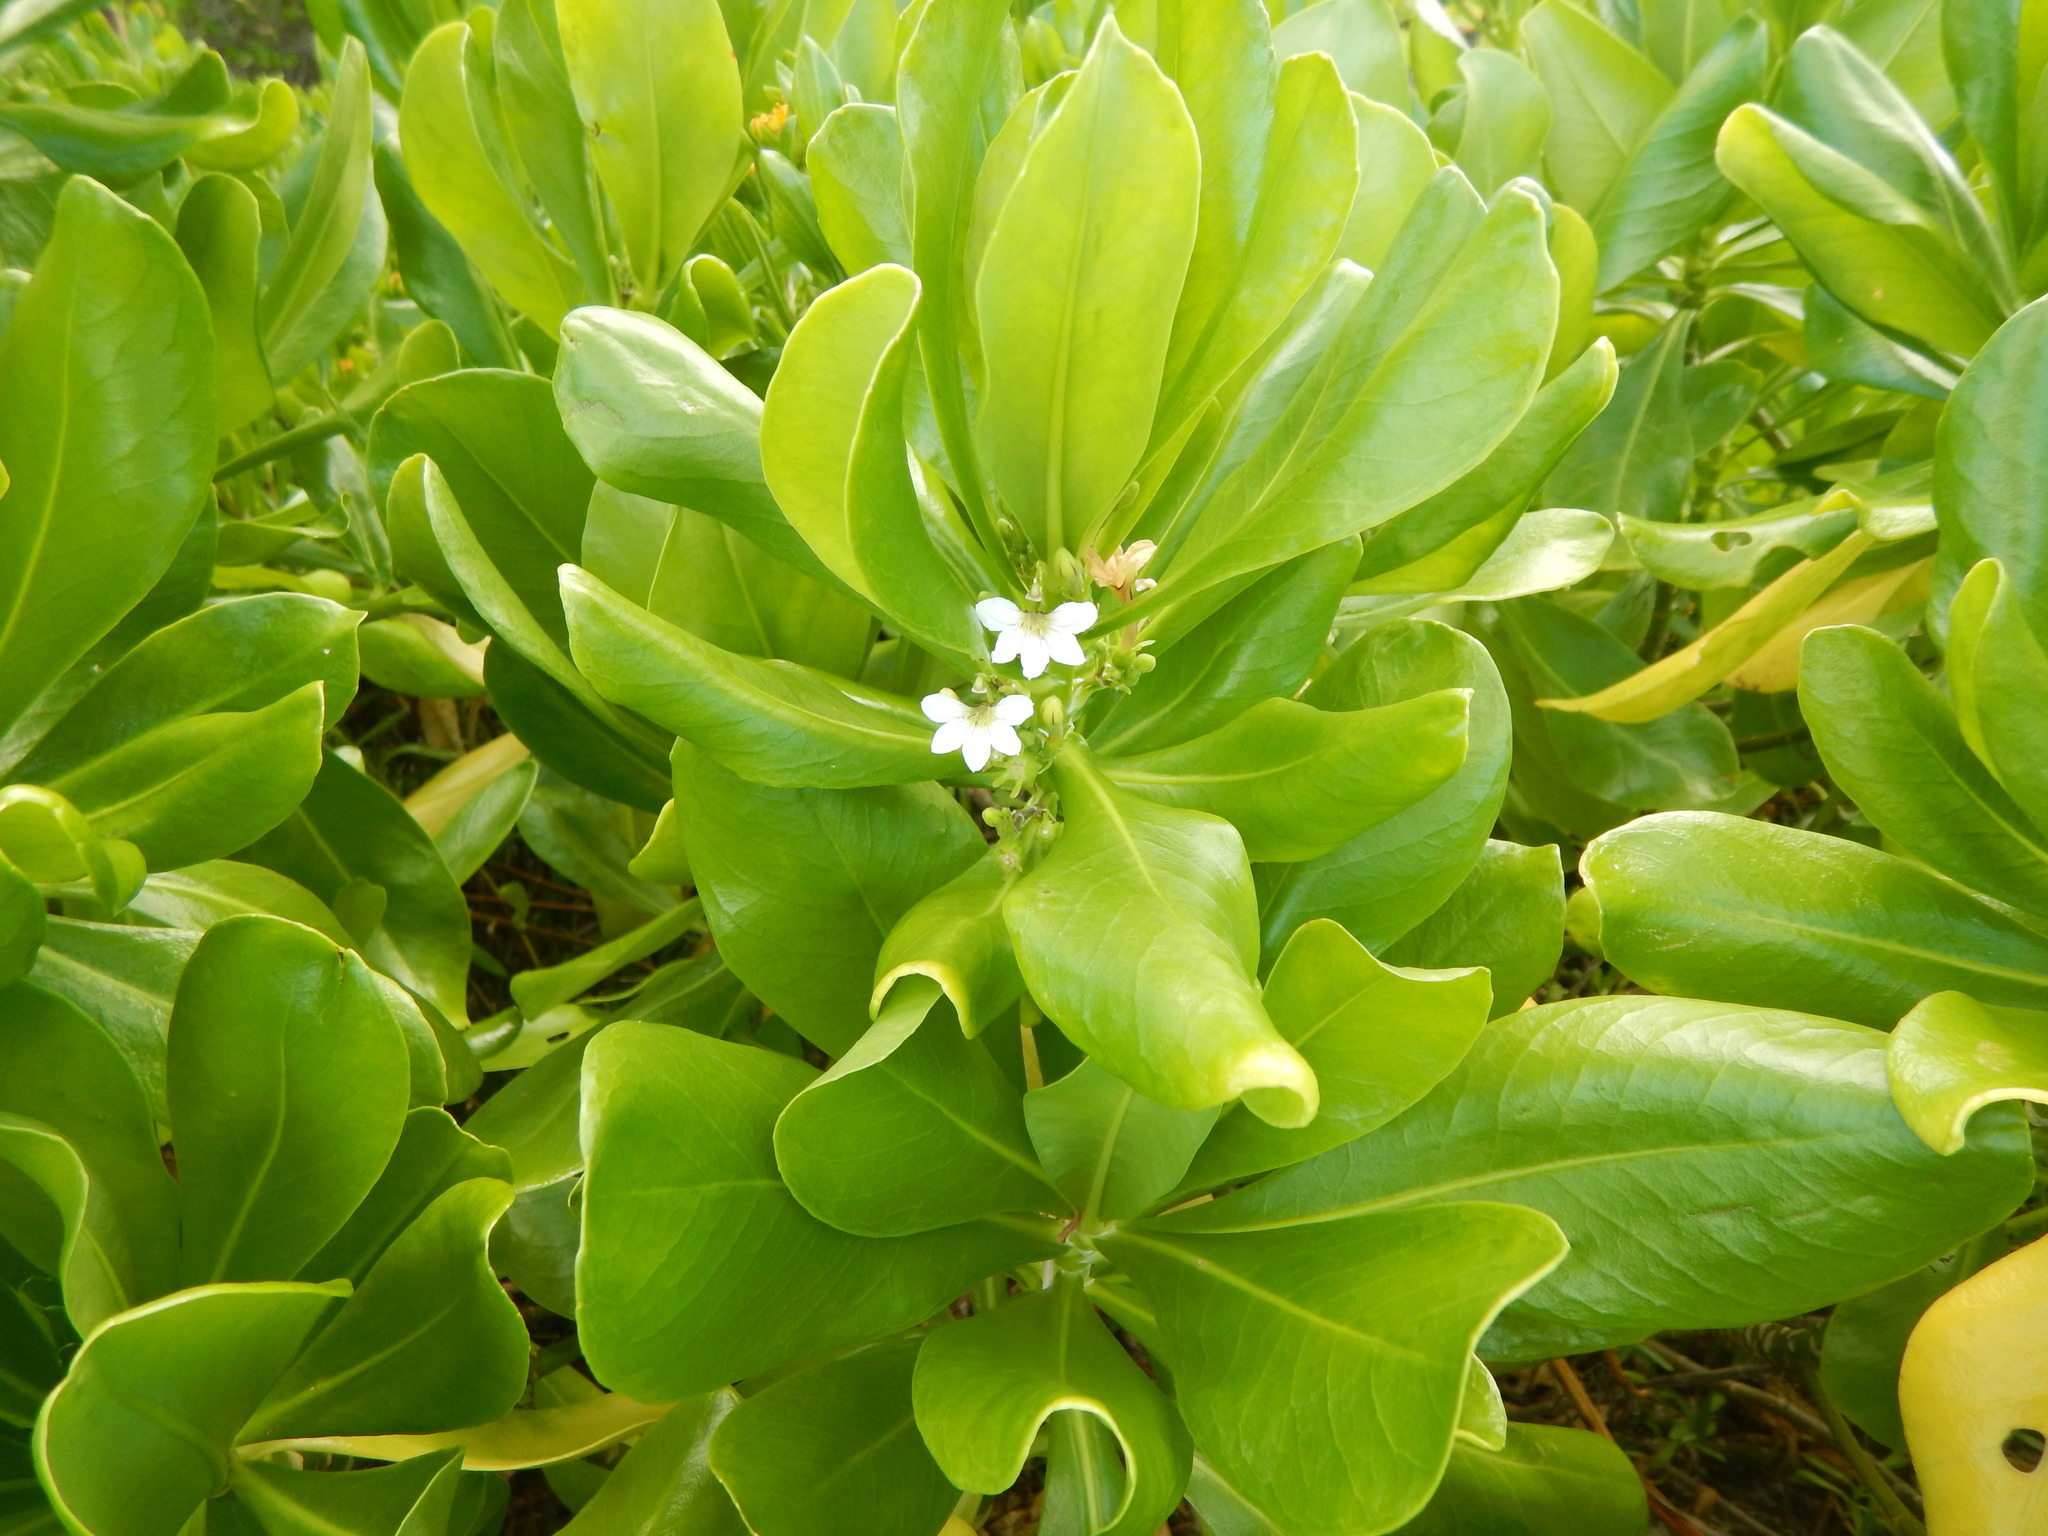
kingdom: Plantae
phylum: Tracheophyta
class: Magnoliopsida
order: Asterales
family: Goodeniaceae
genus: Scaevola
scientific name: Scaevola taccada
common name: Sea lettucetree
